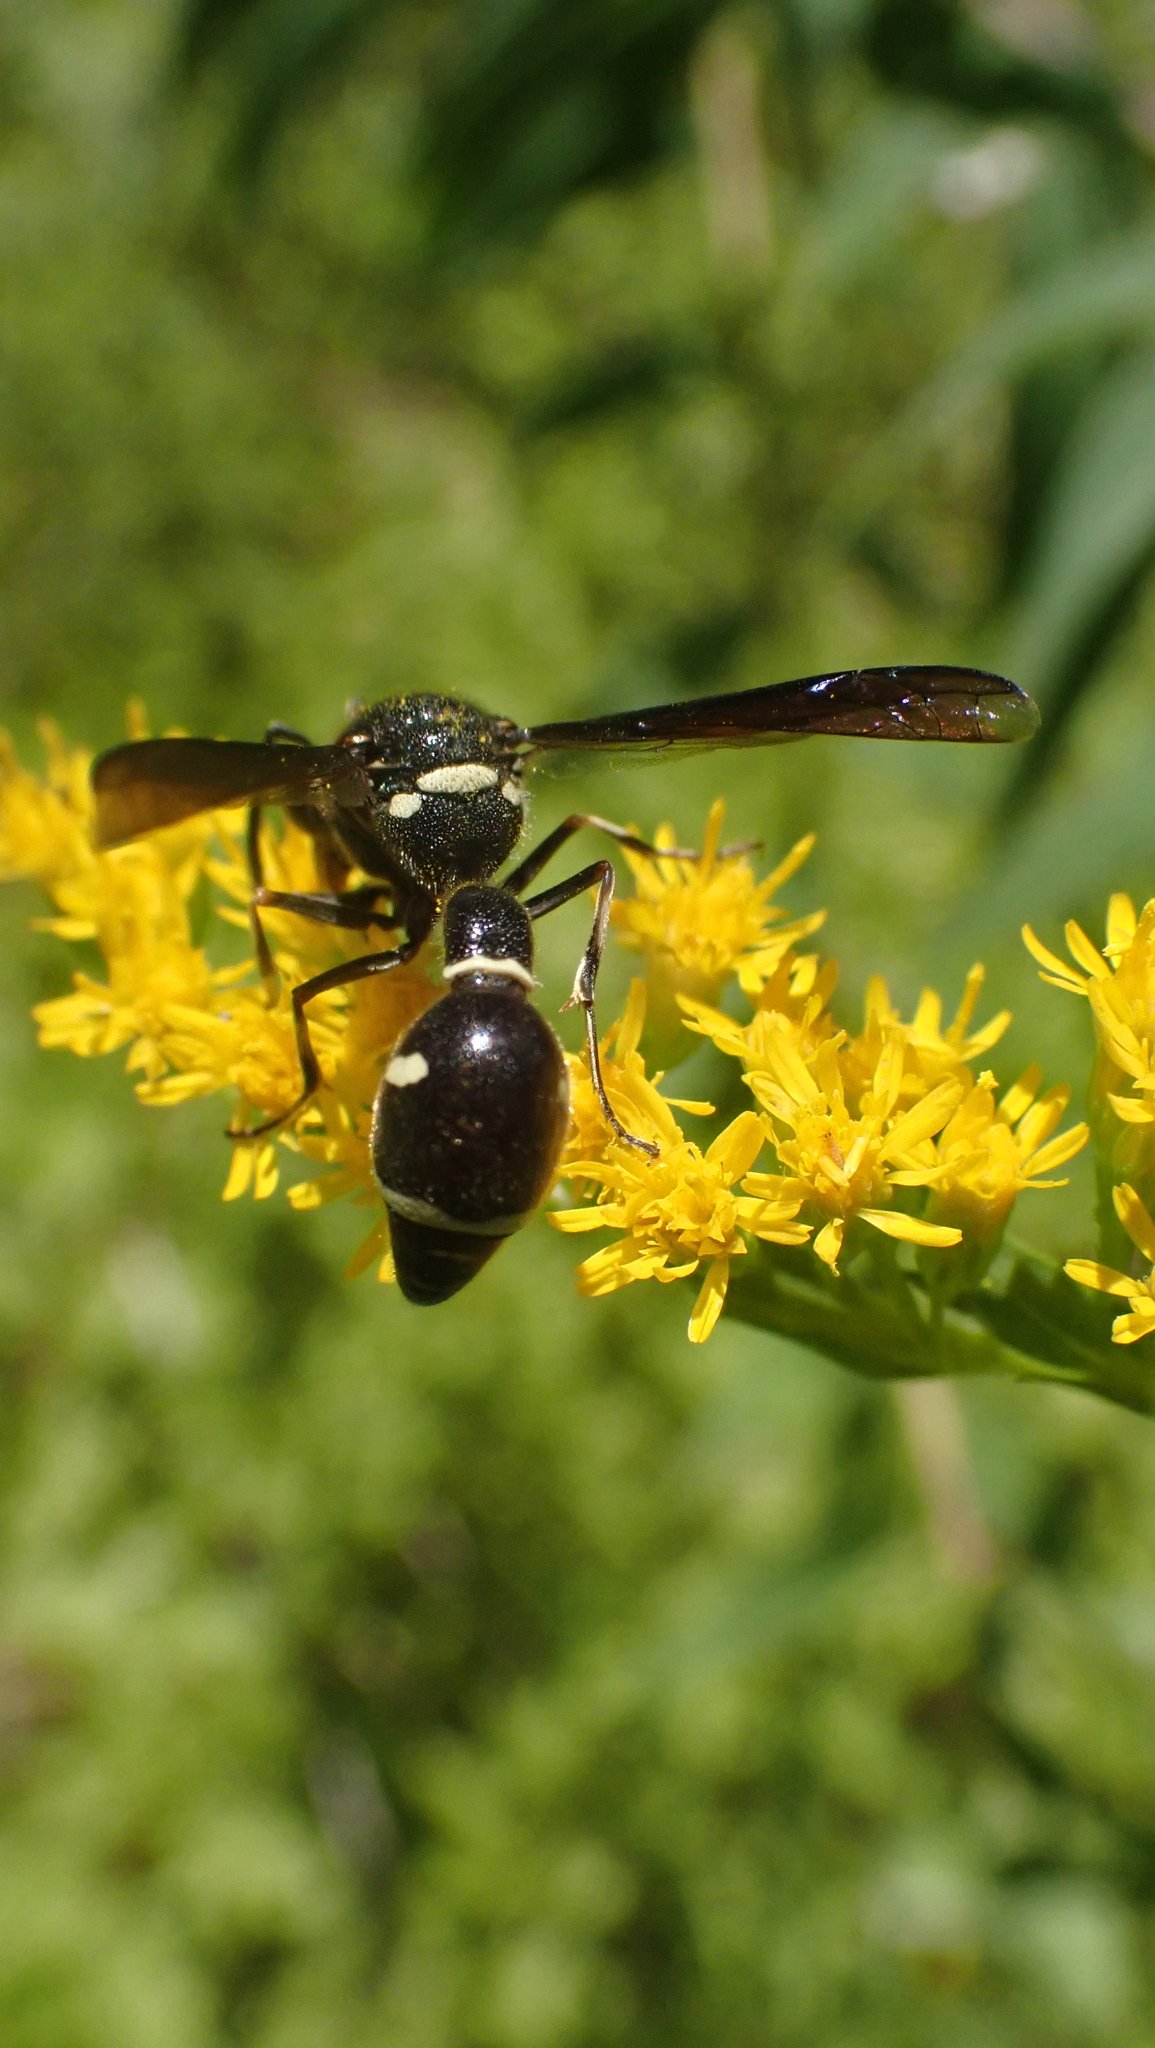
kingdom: Animalia
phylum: Arthropoda
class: Insecta
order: Hymenoptera
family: Vespidae
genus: Eumenes
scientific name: Eumenes fraternus
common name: Fraternal potter wasp
